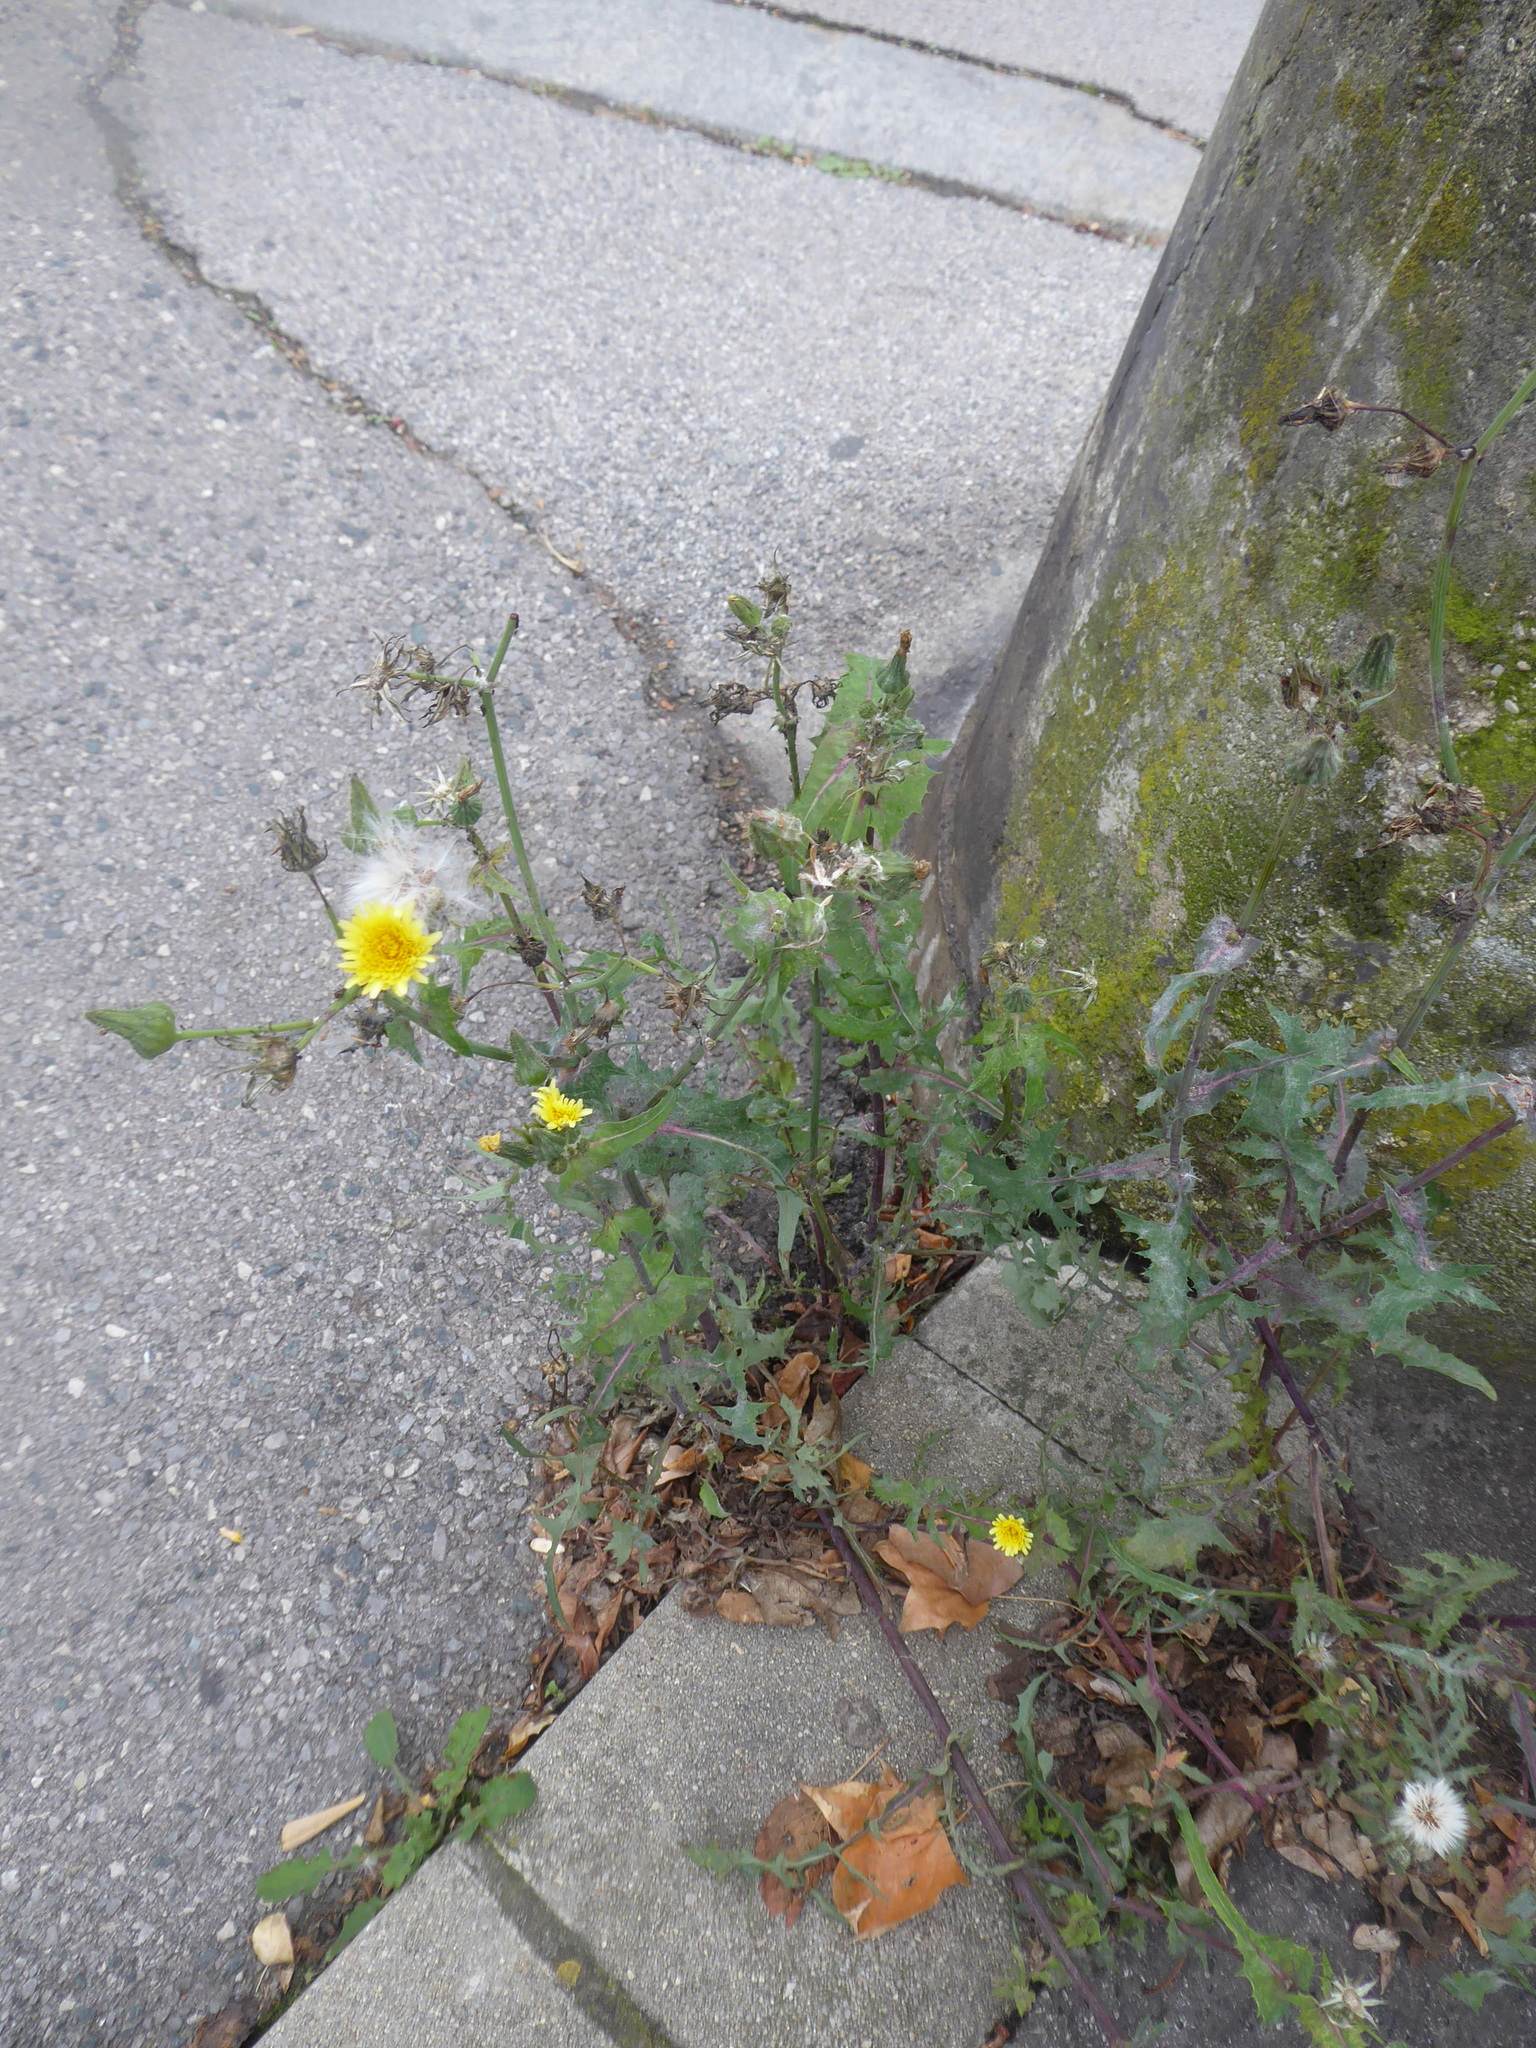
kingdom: Plantae
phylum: Tracheophyta
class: Magnoliopsida
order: Asterales
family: Asteraceae
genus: Sonchus
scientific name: Sonchus oleraceus
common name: Common sowthistle
